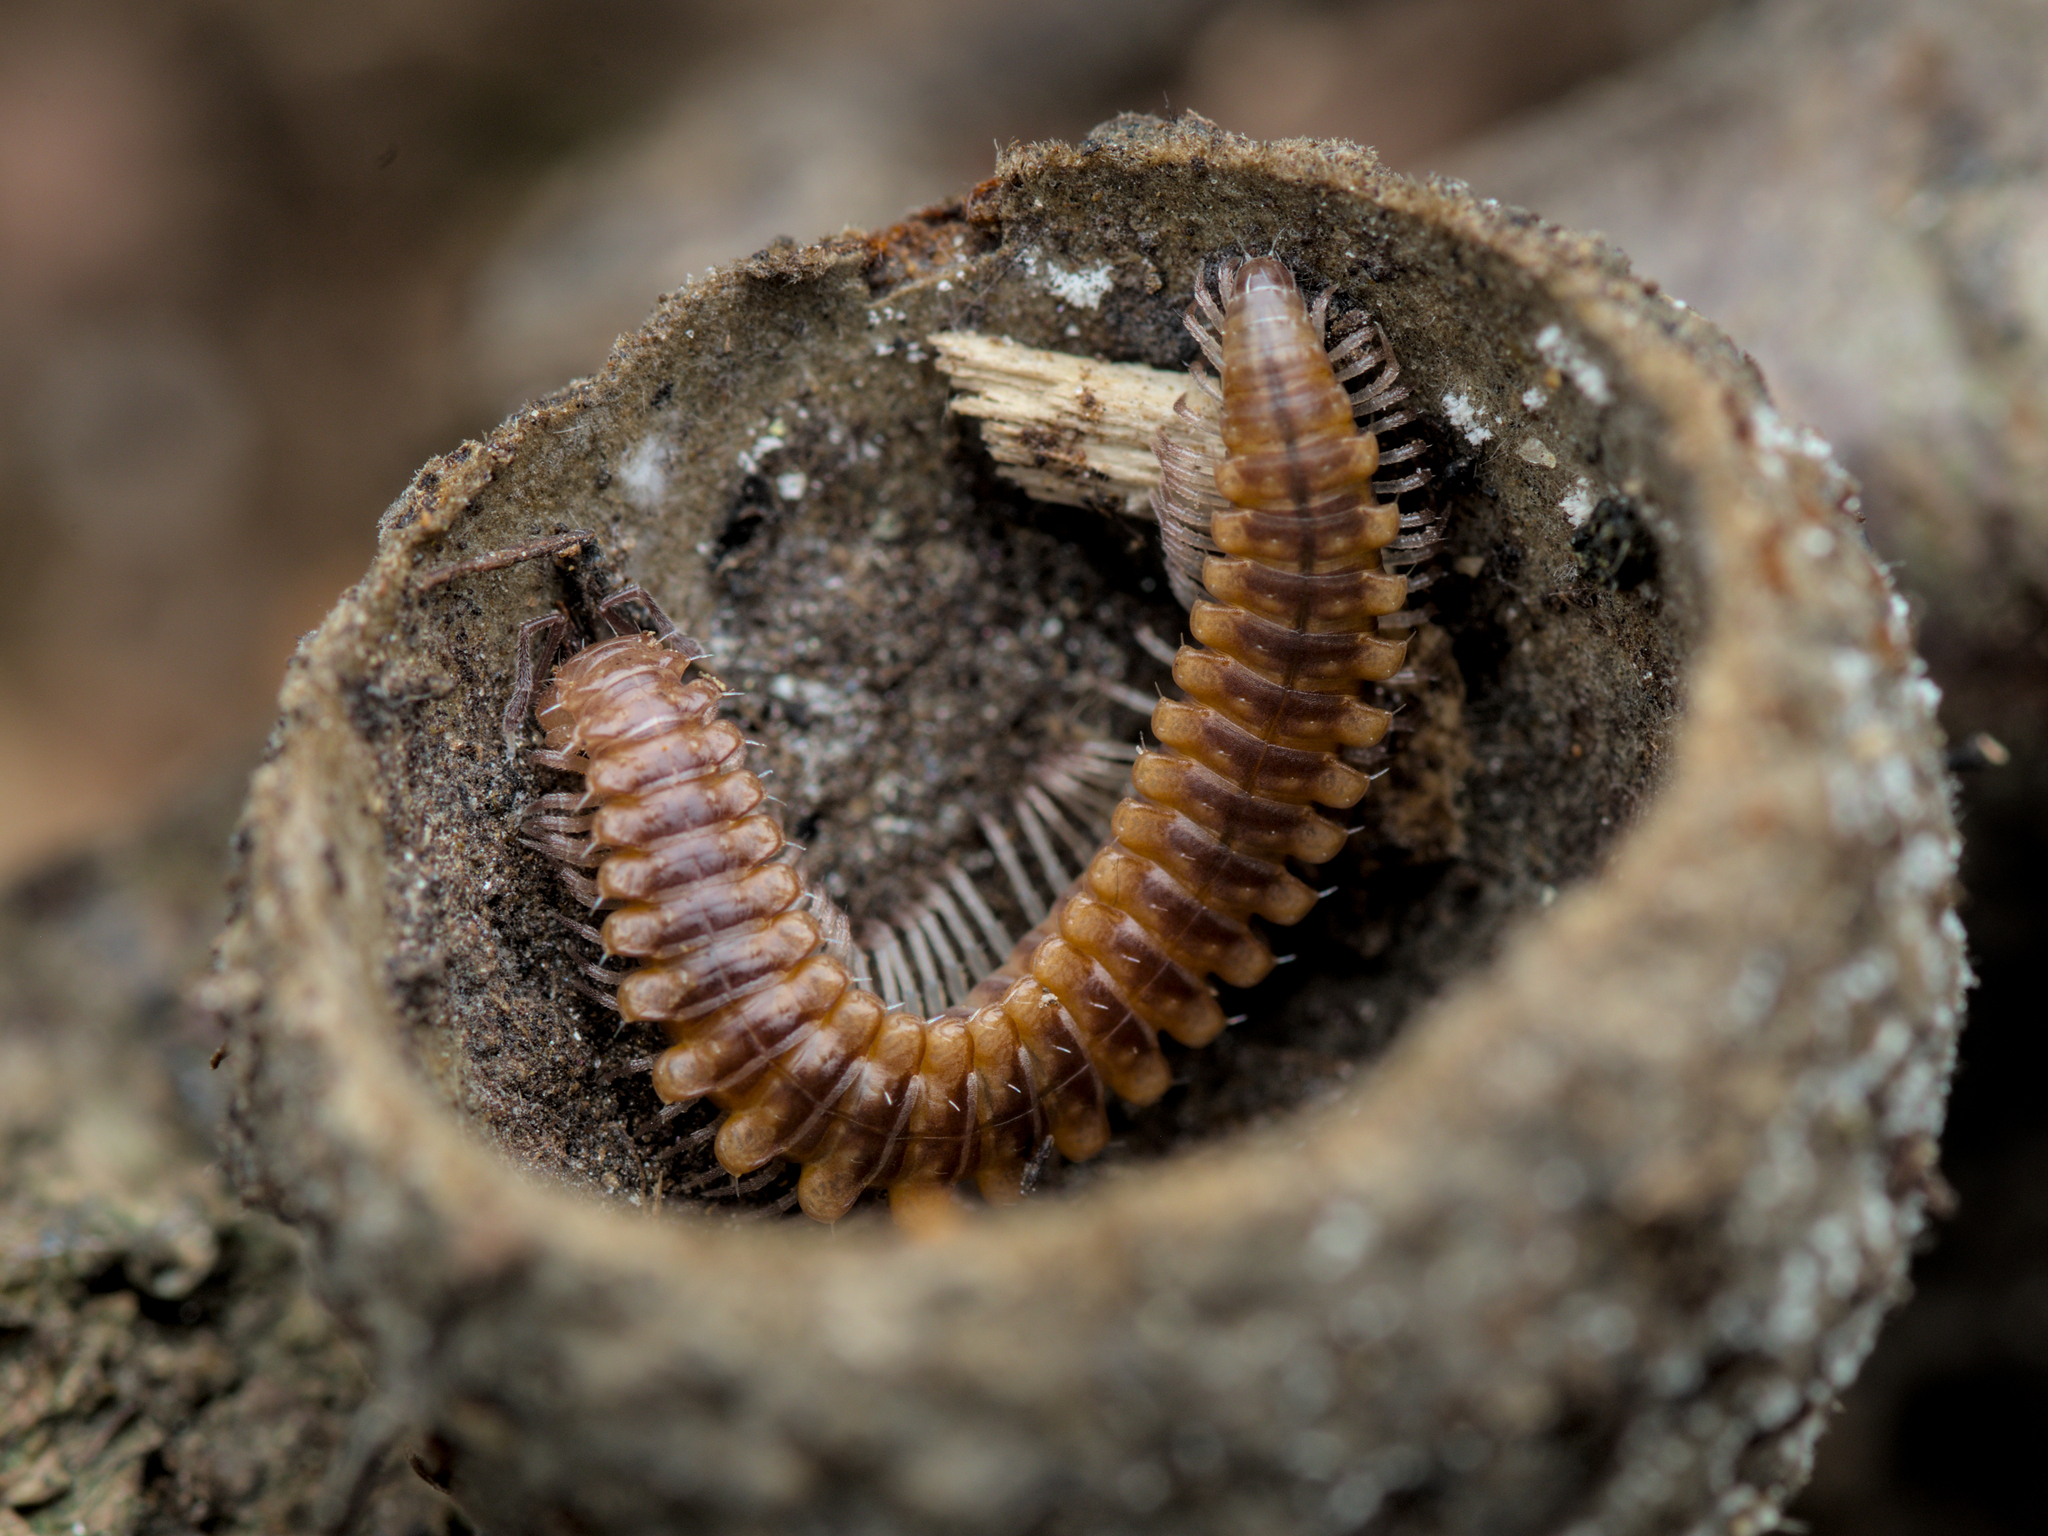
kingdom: Animalia
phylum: Arthropoda
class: Diplopoda
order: Chordeumatida
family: Craspedosomatidae
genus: Nanogona
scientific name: Nanogona polydesmoides
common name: Eyed flat-backed millipede
